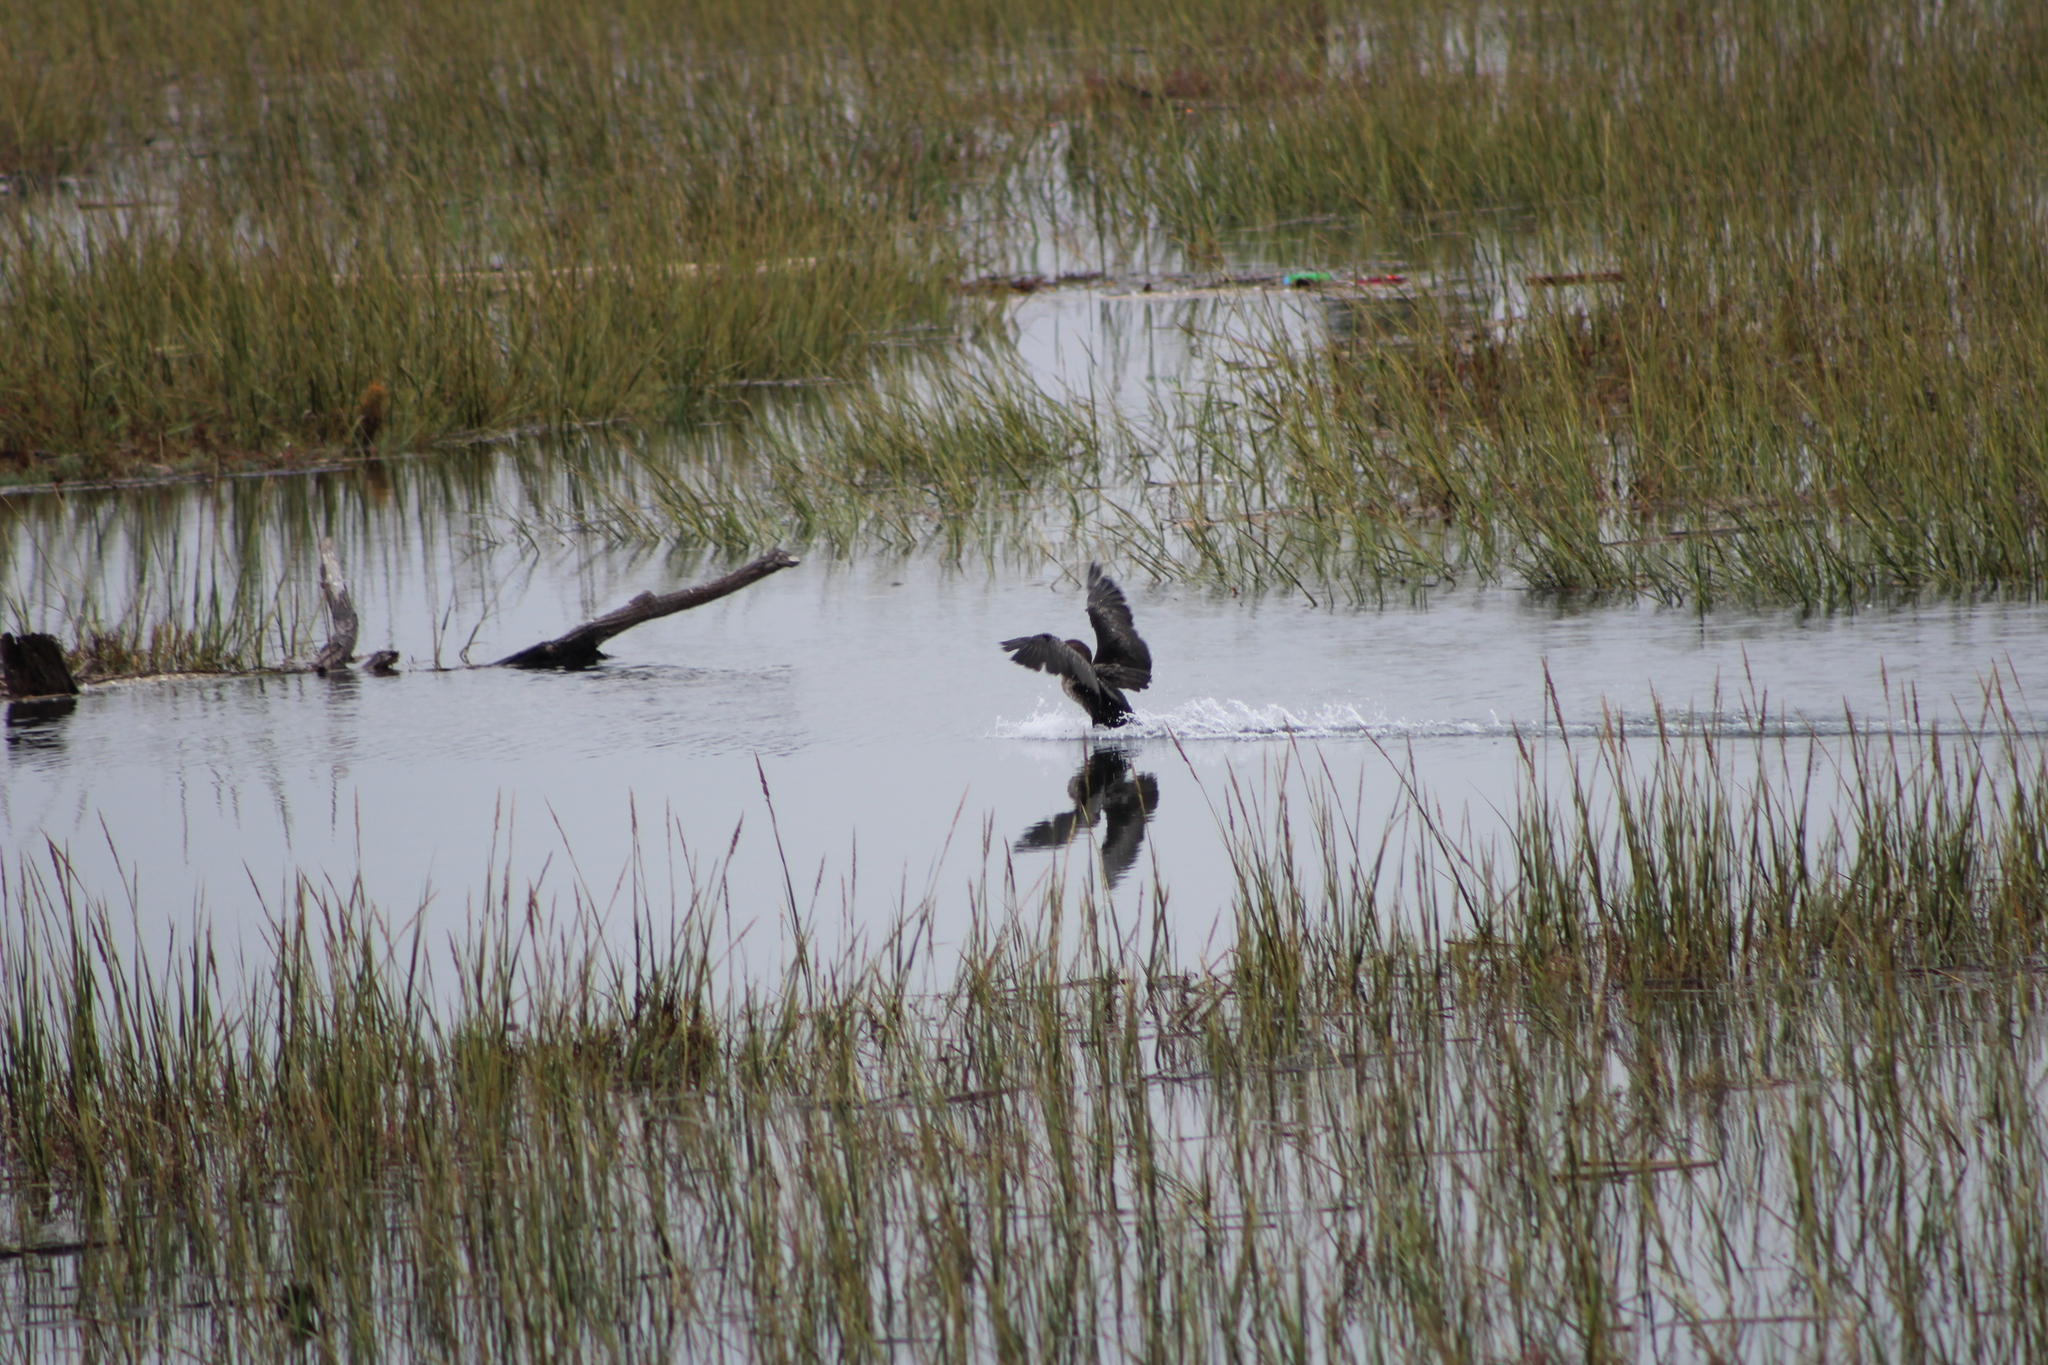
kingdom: Animalia
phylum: Chordata
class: Aves
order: Suliformes
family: Phalacrocoracidae
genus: Phalacrocorax
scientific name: Phalacrocorax auritus
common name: Double-crested cormorant
